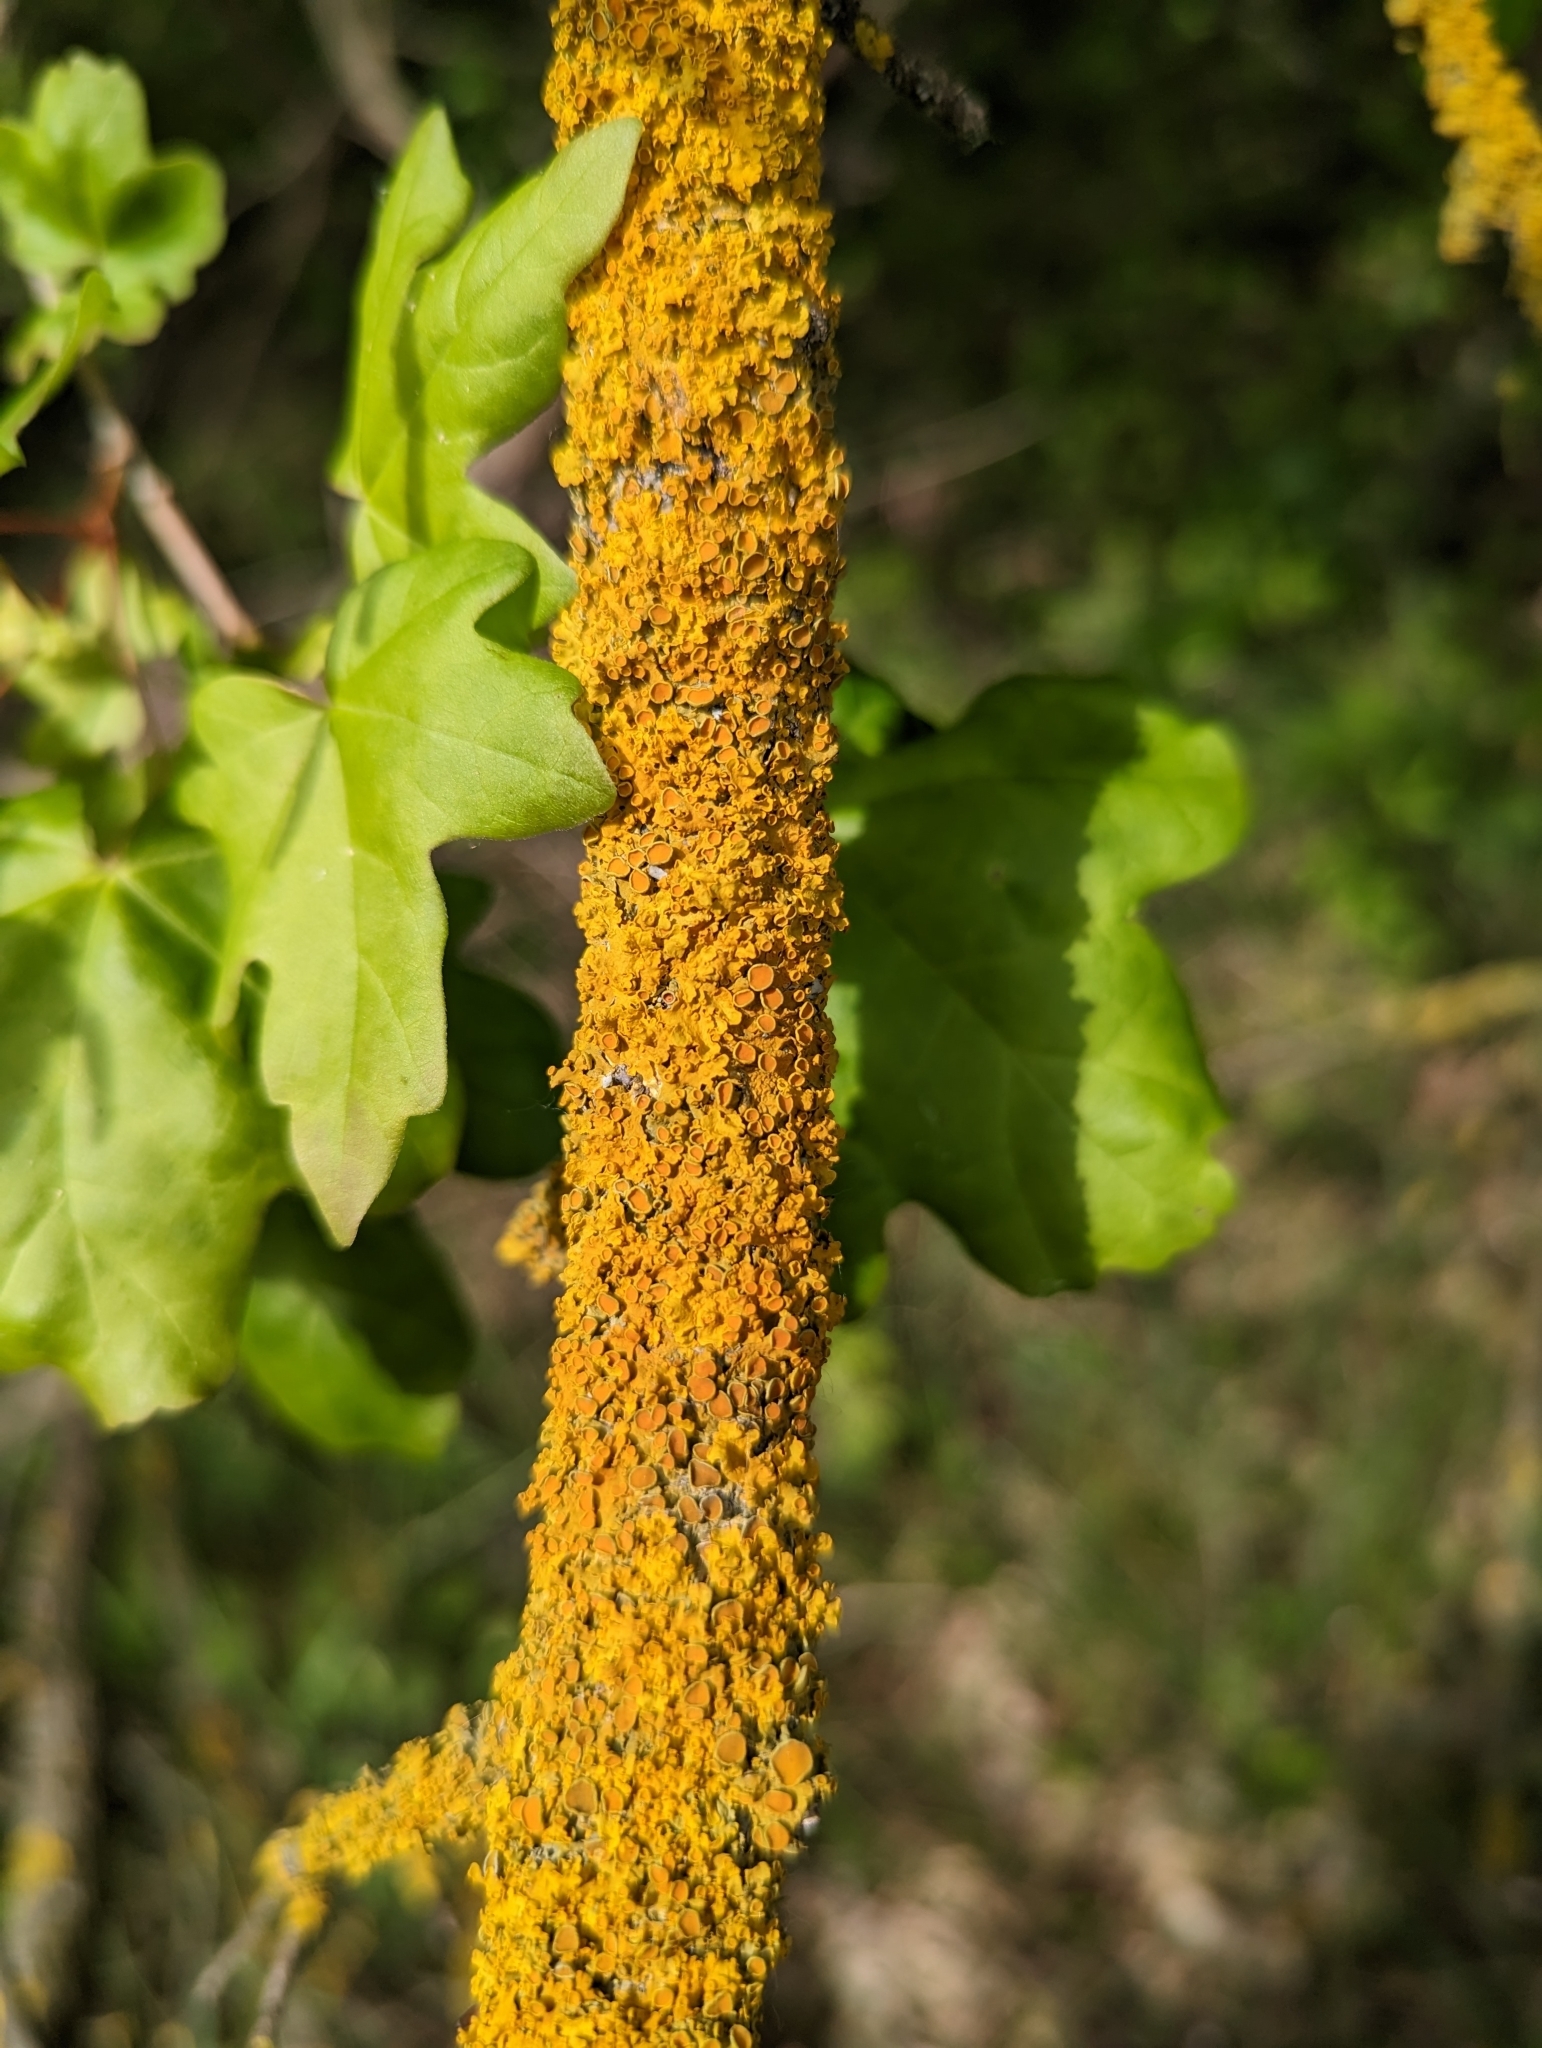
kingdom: Fungi
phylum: Ascomycota
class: Lecanoromycetes
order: Teloschistales
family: Teloschistaceae
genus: Xanthoria
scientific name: Xanthoria parietina
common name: Common orange lichen
